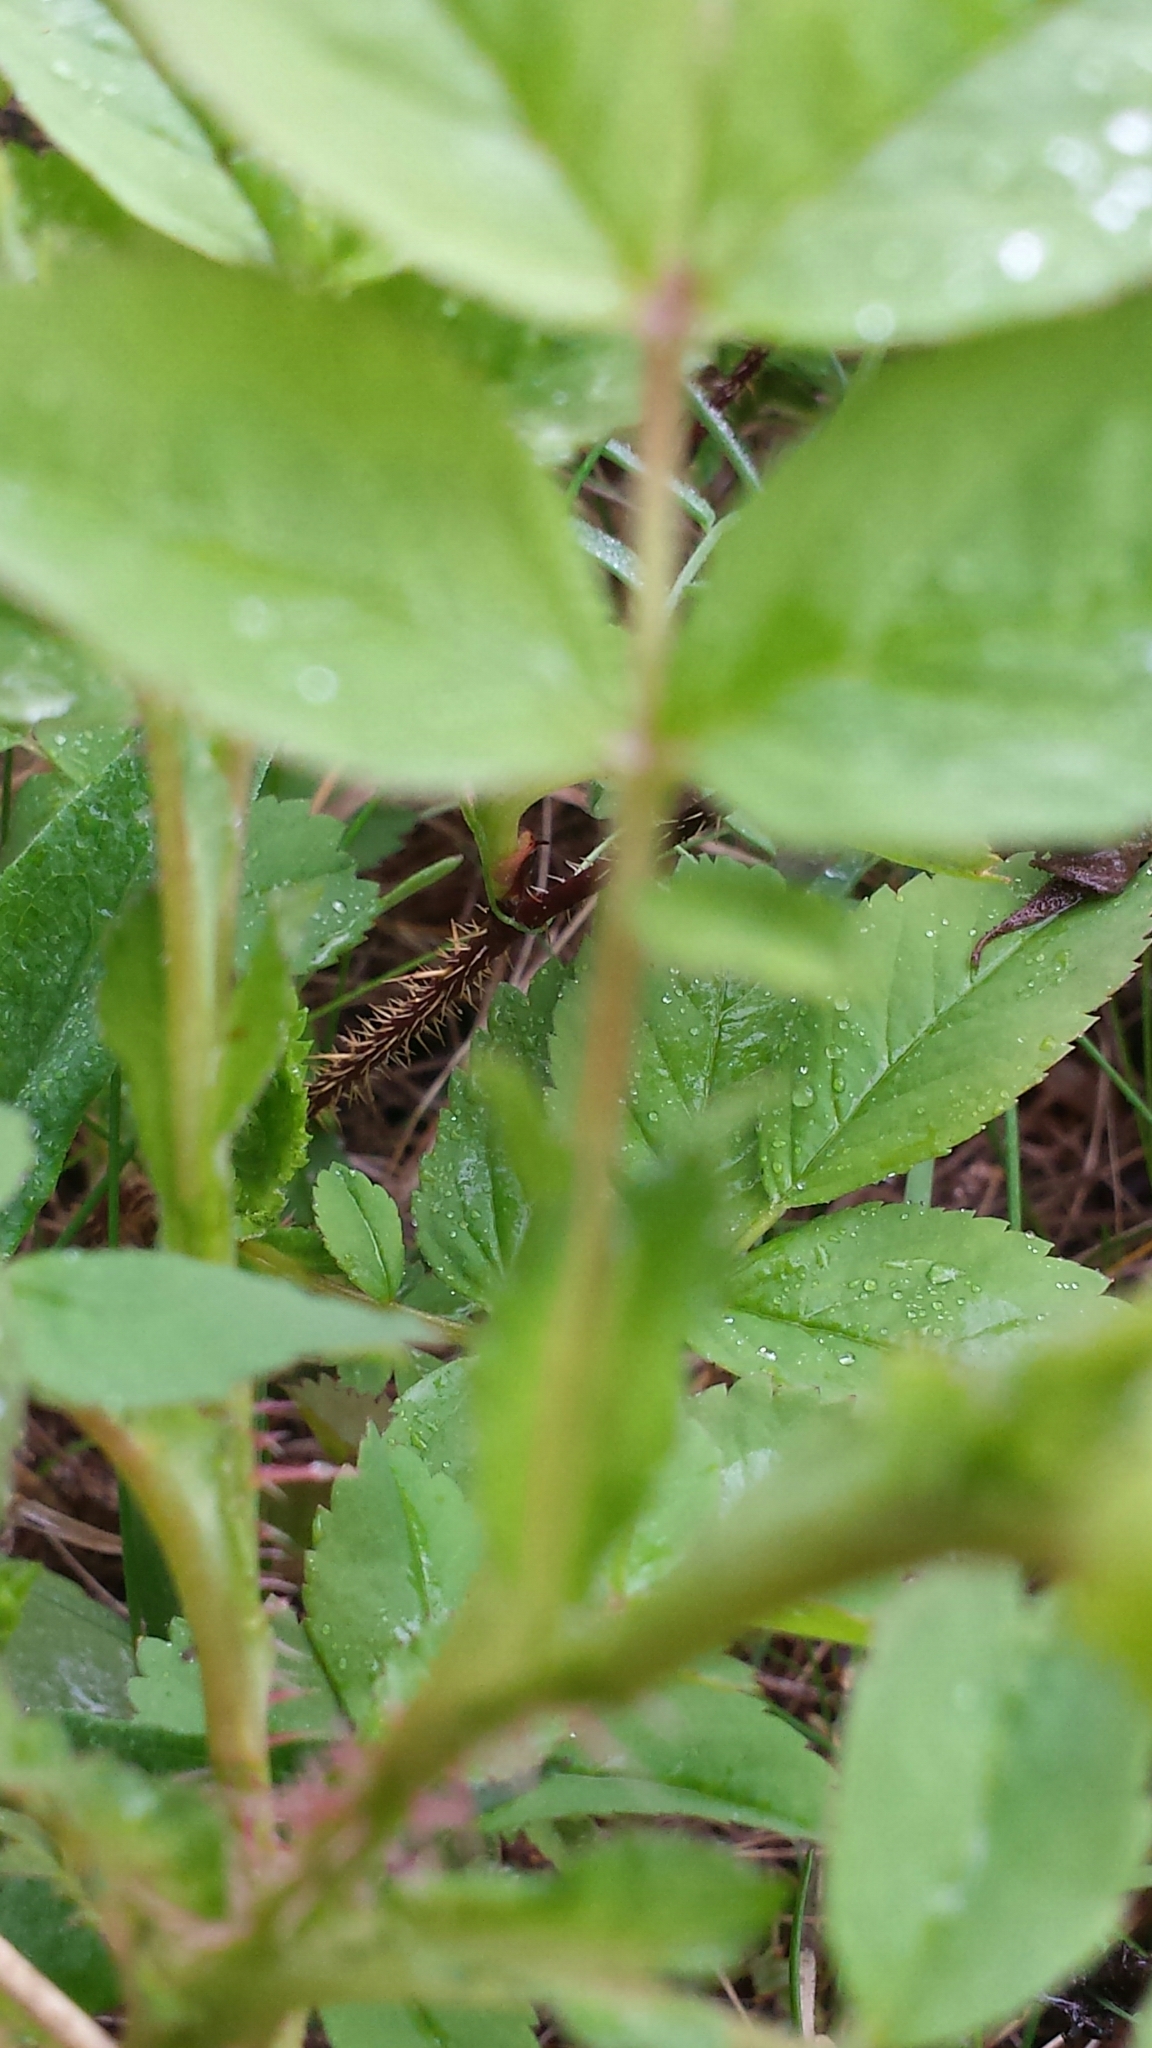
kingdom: Plantae
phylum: Tracheophyta
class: Magnoliopsida
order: Rosales
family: Rosaceae
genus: Rosa
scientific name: Rosa acicularis
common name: Prickly rose
